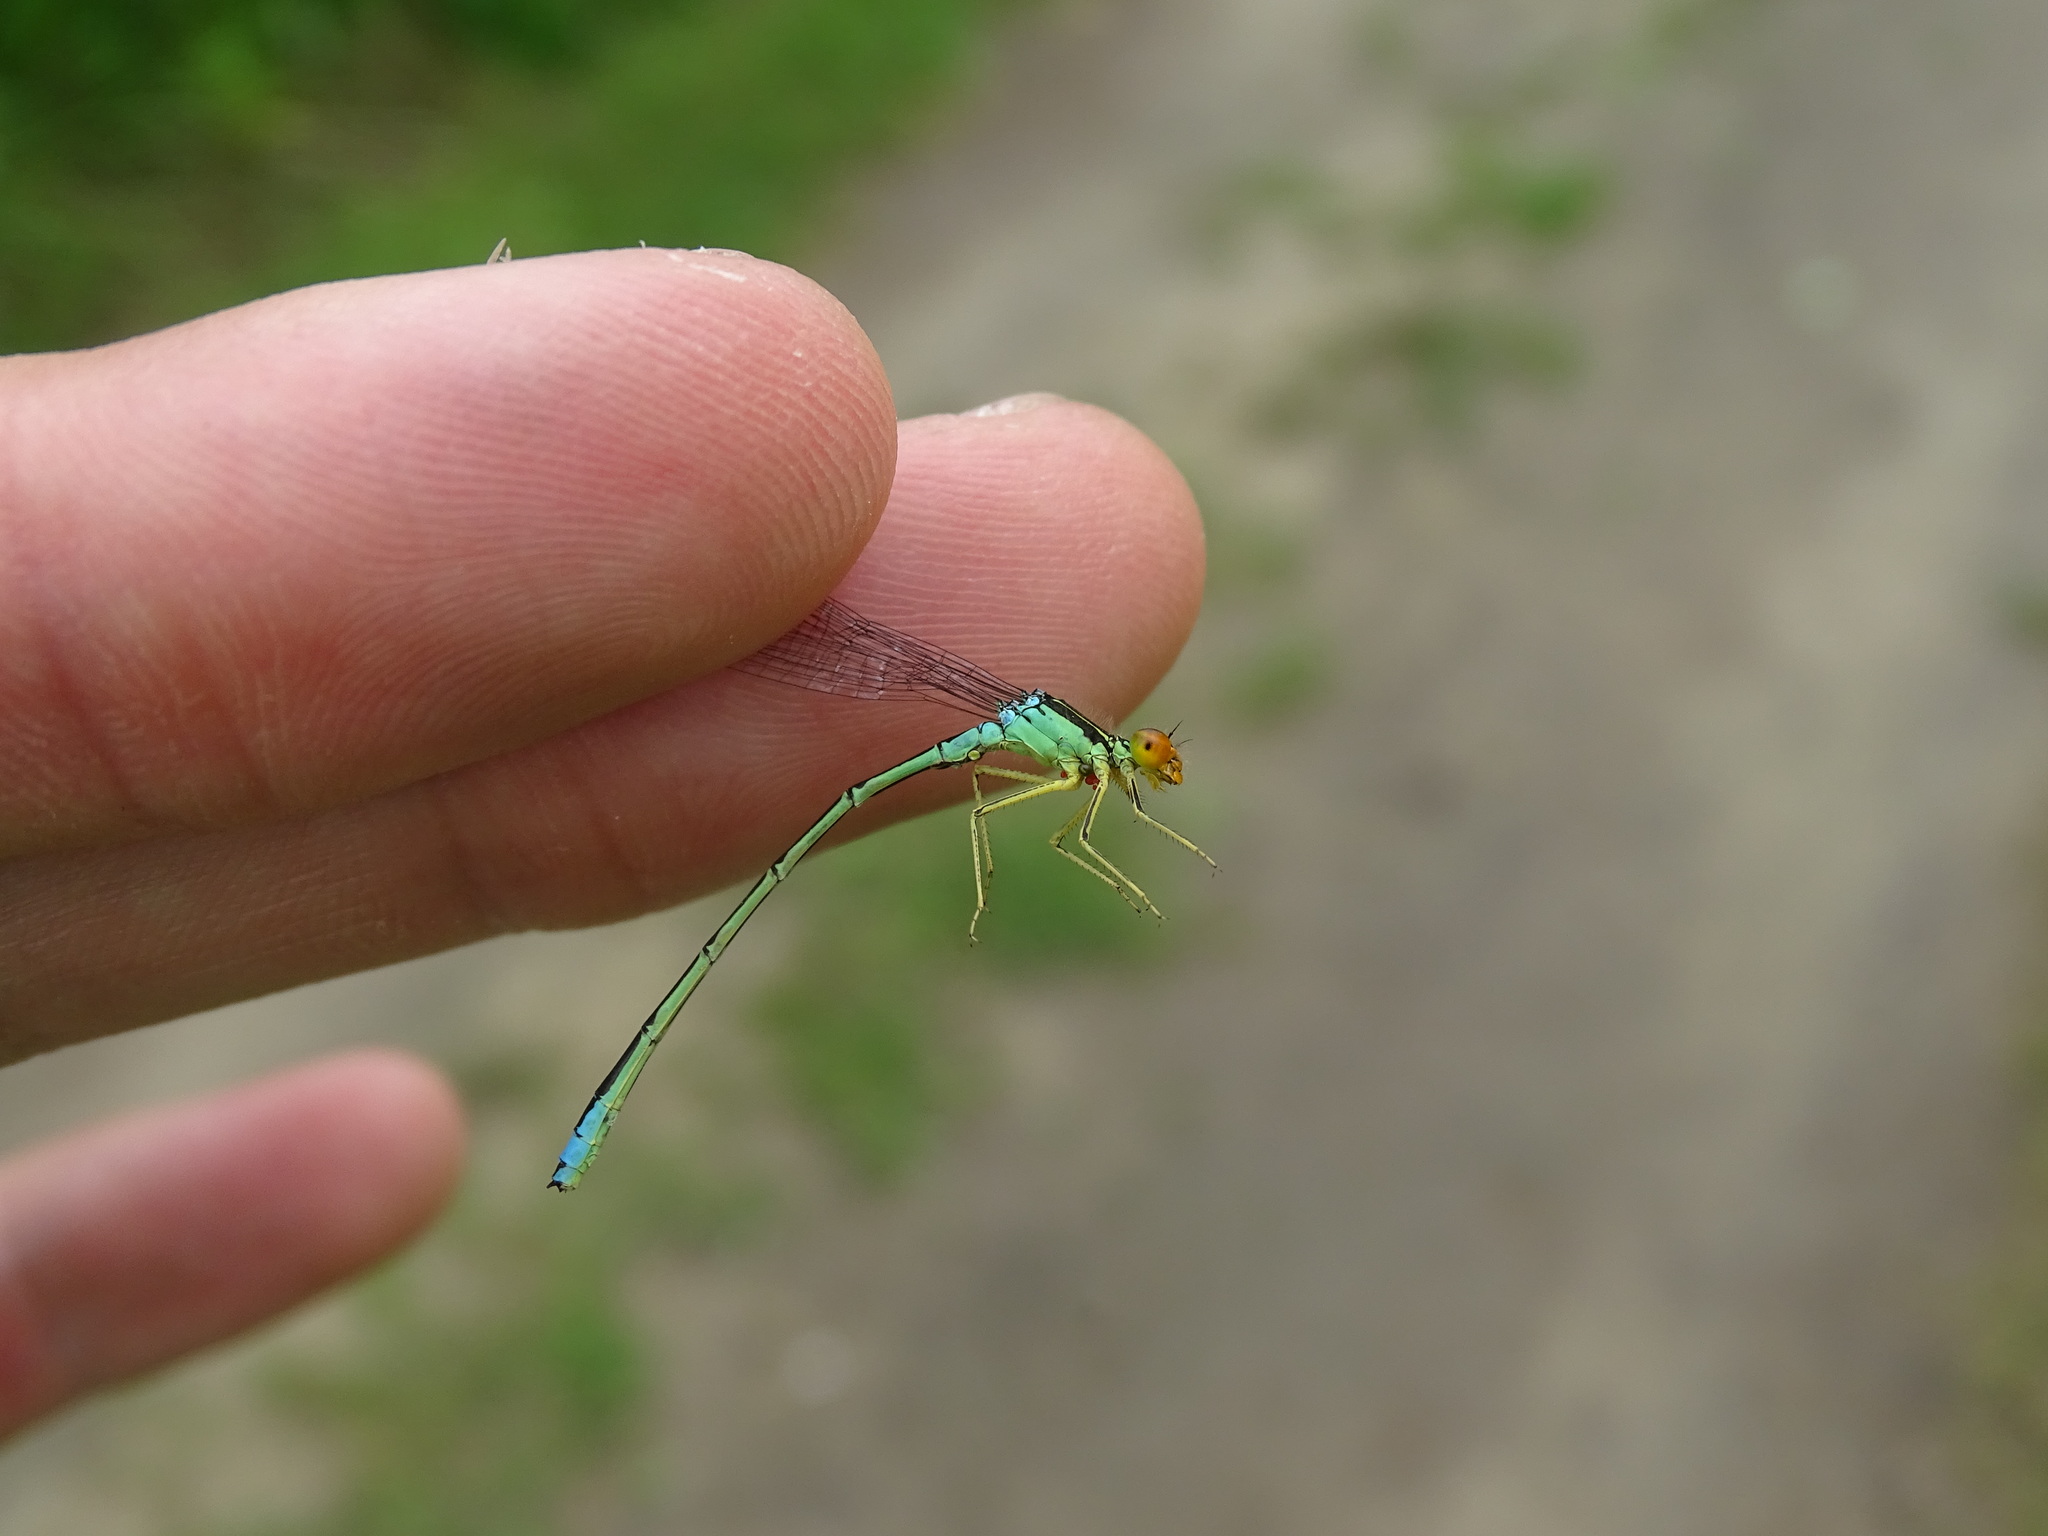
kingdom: Animalia
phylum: Arthropoda
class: Insecta
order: Odonata
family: Coenagrionidae
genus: Enallagma
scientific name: Enallagma antennatum
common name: Rainbow bluet
